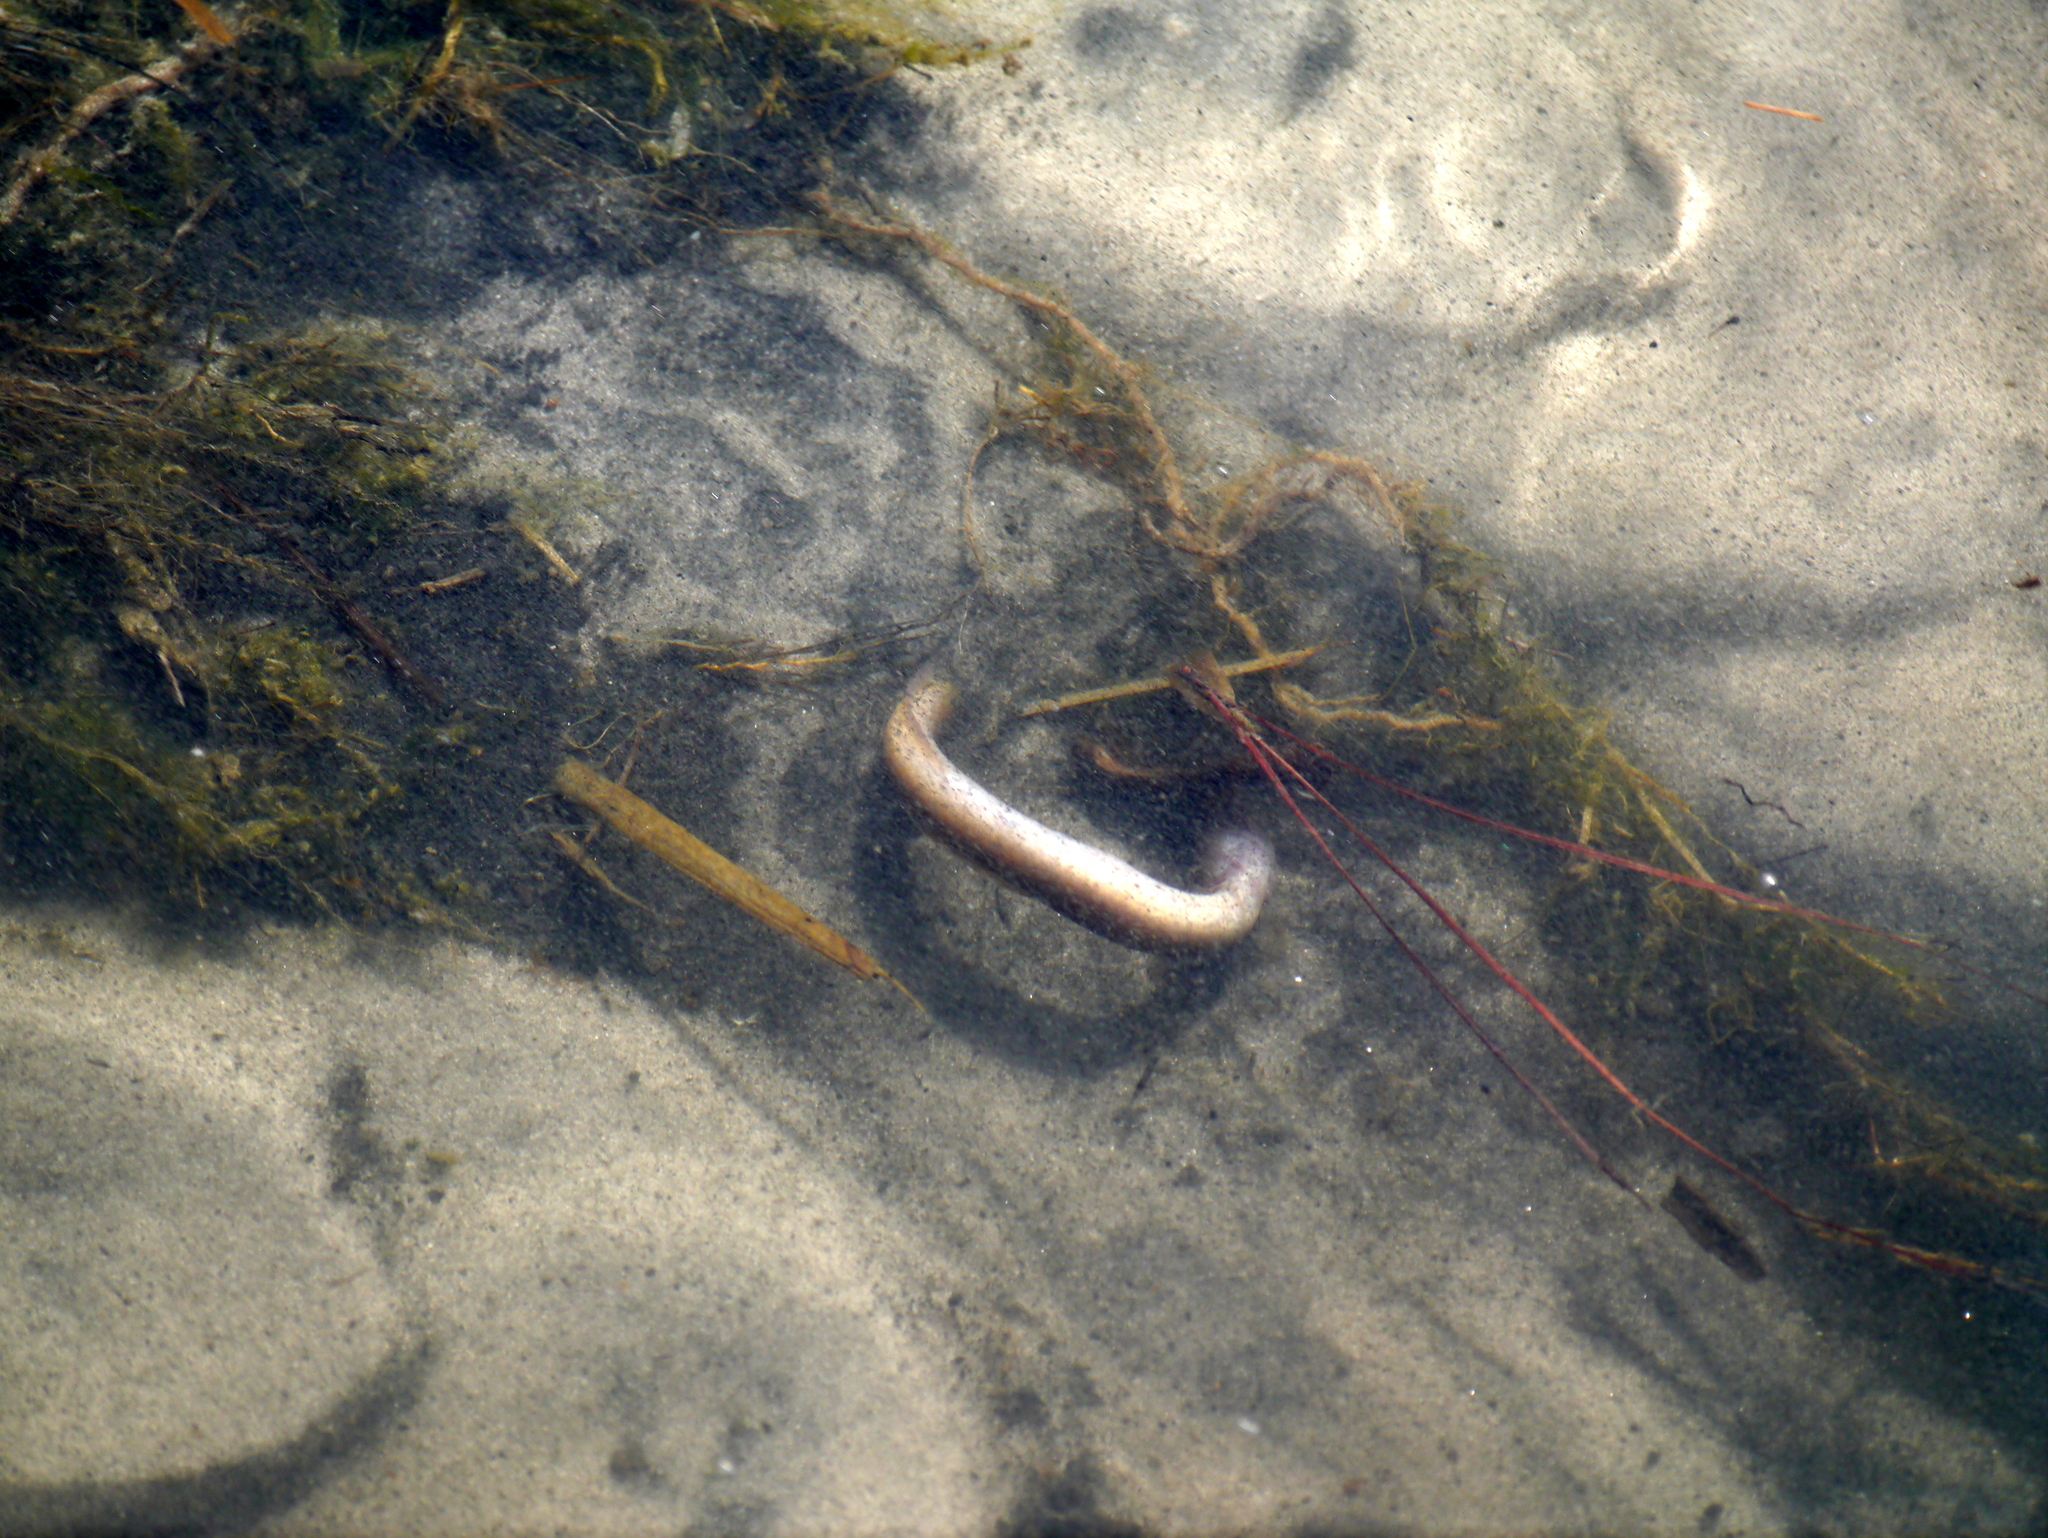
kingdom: Animalia
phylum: Chordata
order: Anguilliformes
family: Anguillidae
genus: Anguilla
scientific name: Anguilla rostrata
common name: American eel
